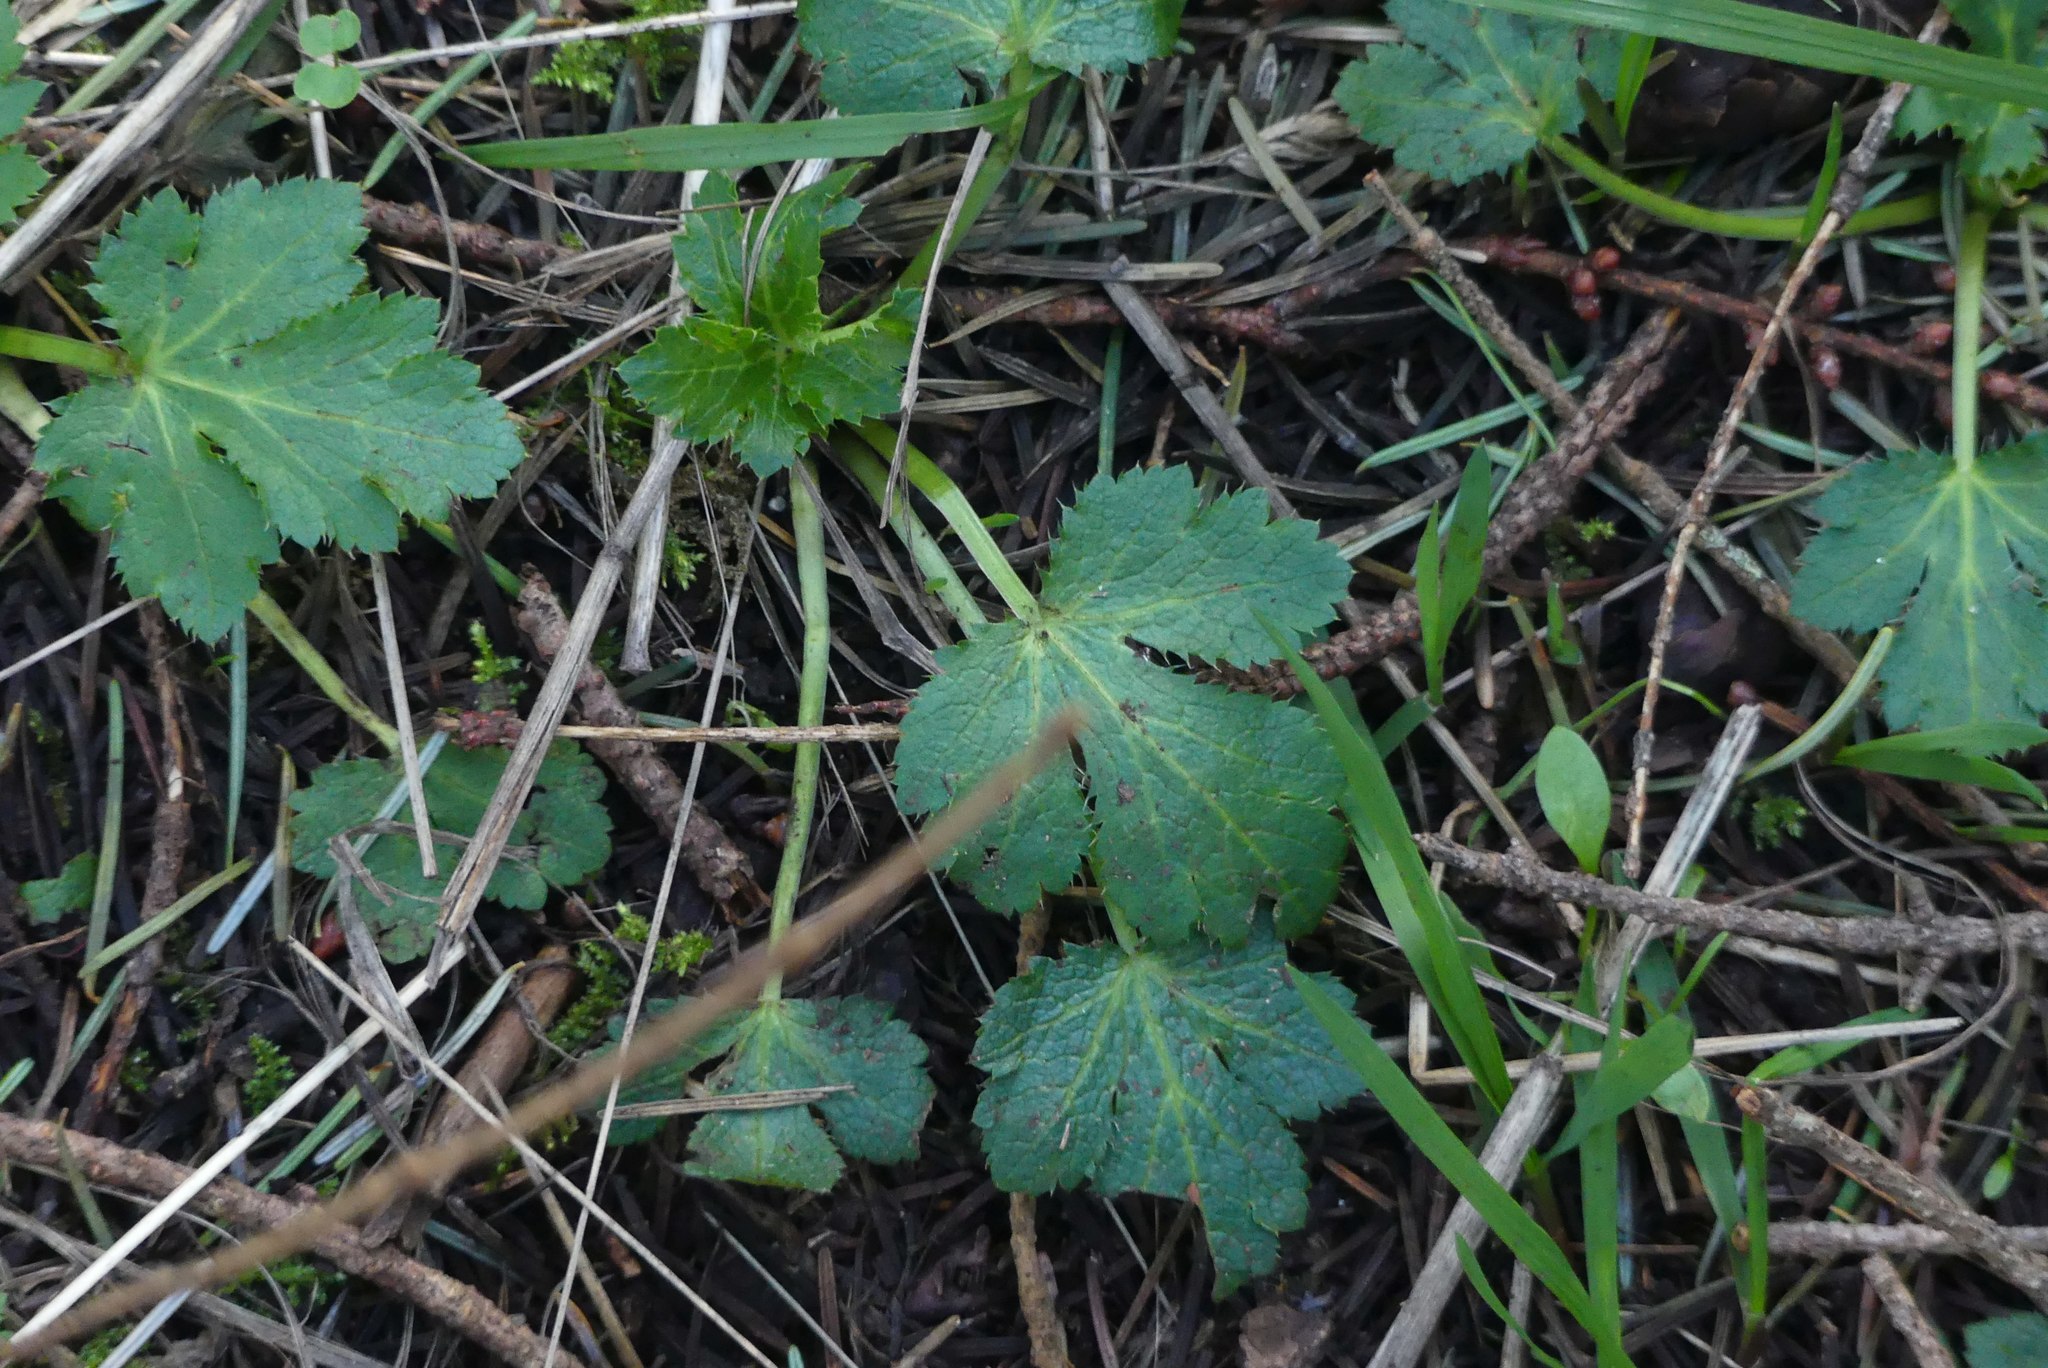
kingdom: Plantae
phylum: Tracheophyta
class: Magnoliopsida
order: Apiales
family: Apiaceae
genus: Sanicula
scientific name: Sanicula crassicaulis
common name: Western snakeroot
